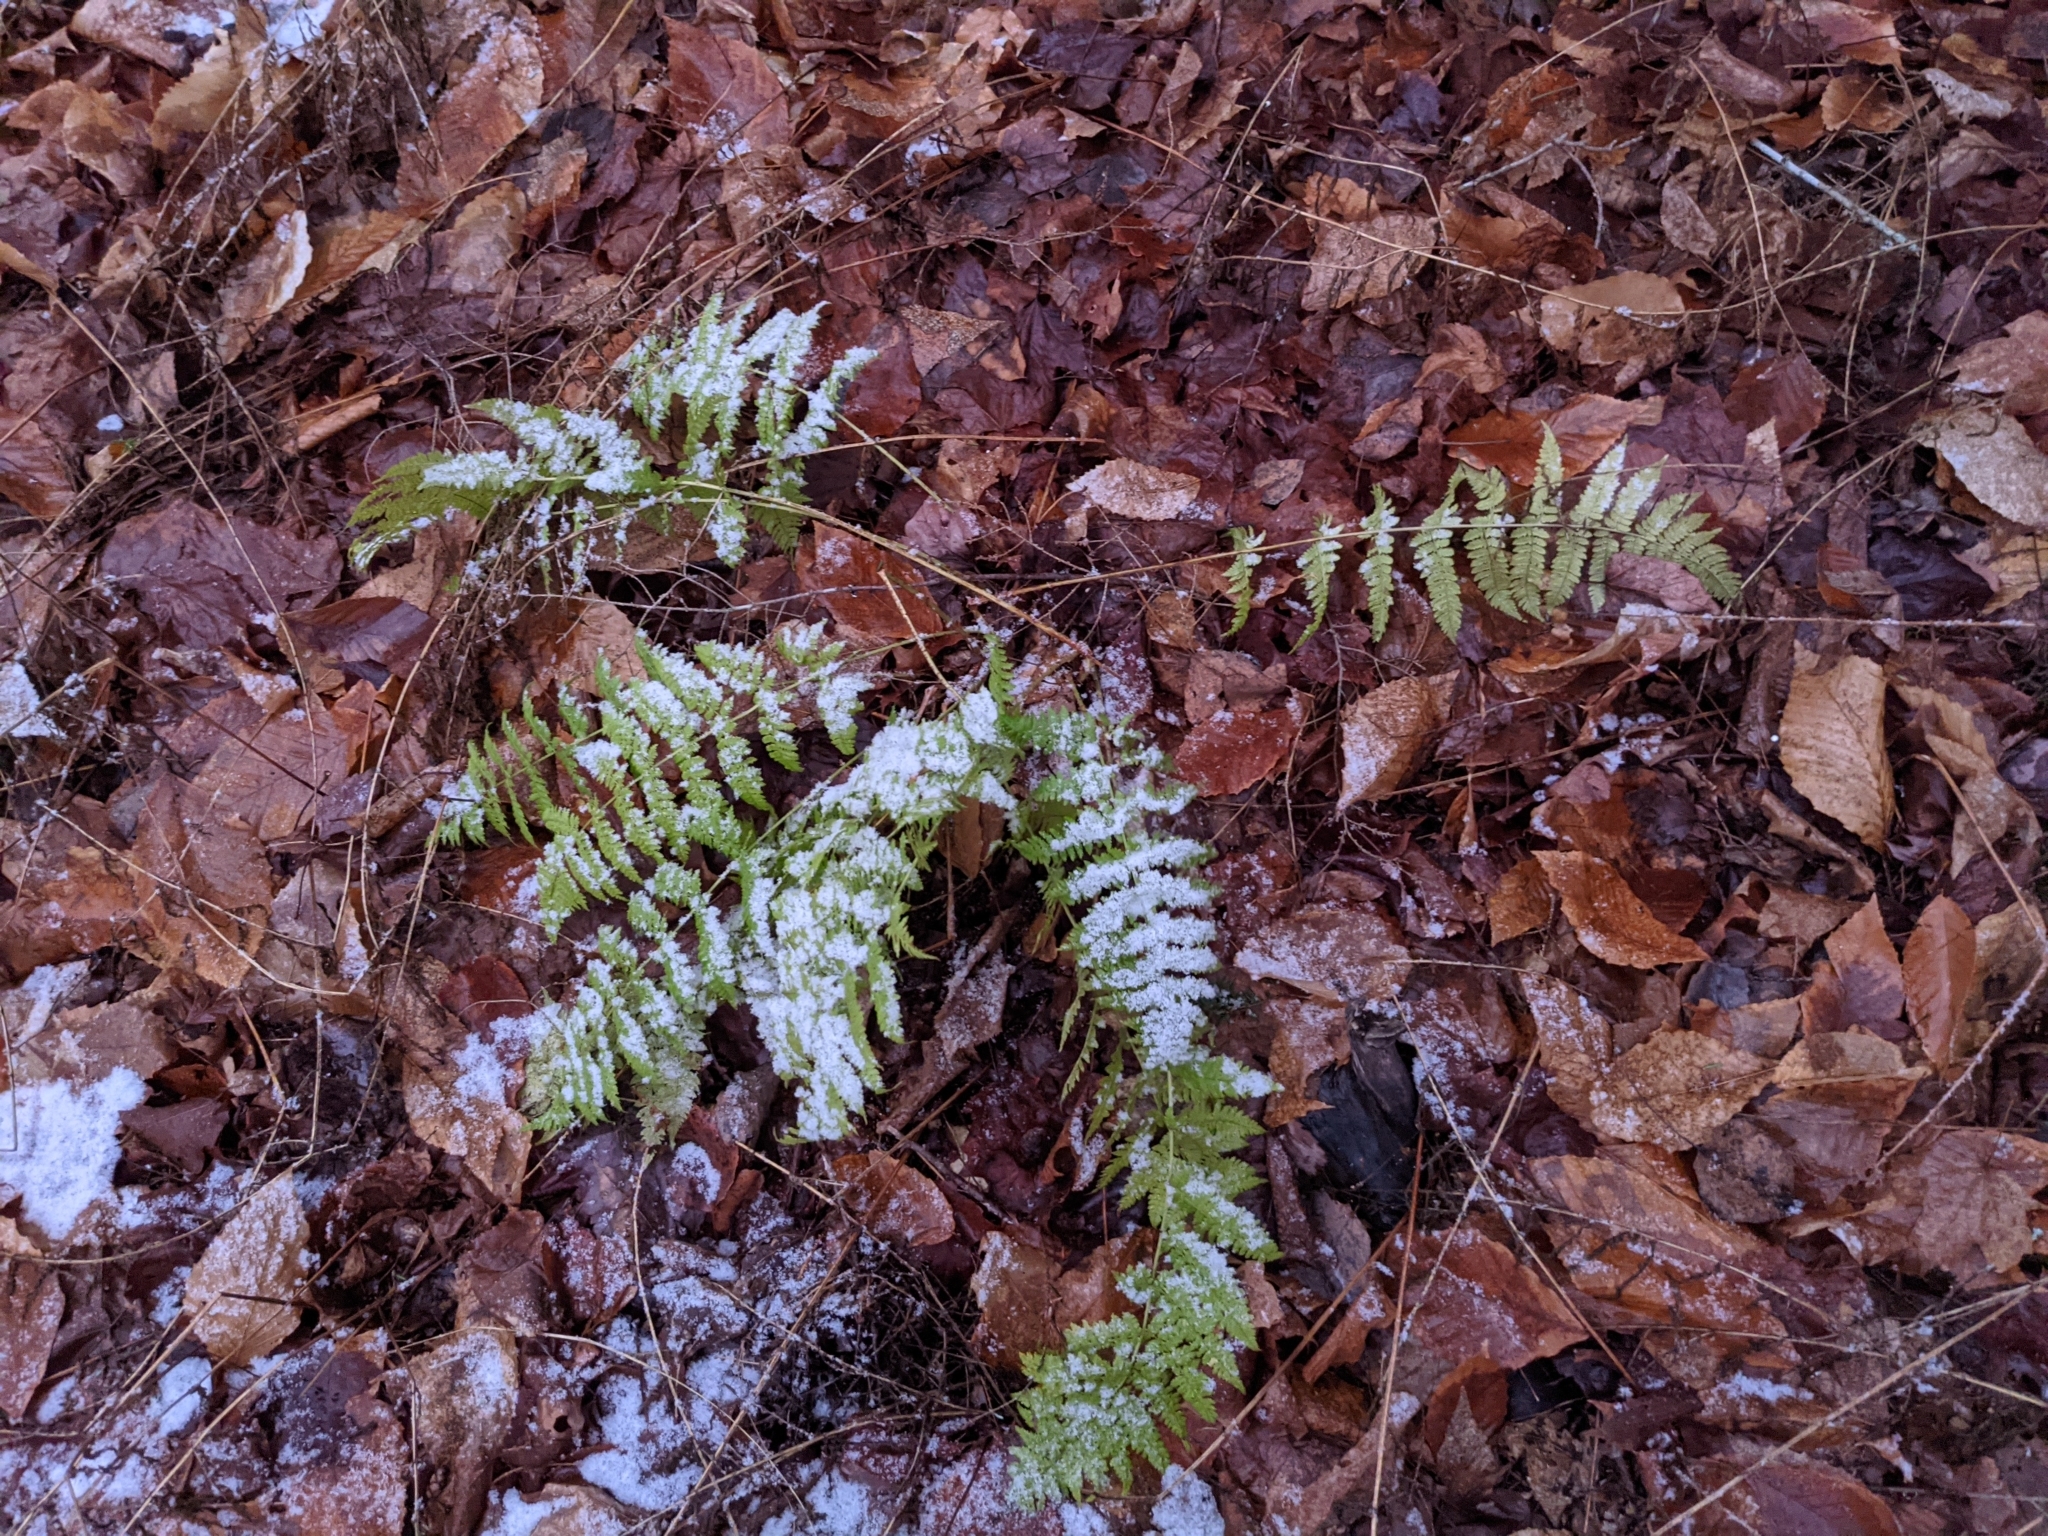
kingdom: Plantae
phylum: Tracheophyta
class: Polypodiopsida
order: Polypodiales
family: Dryopteridaceae
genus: Dryopteris
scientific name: Dryopteris intermedia
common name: Evergreen wood fern
